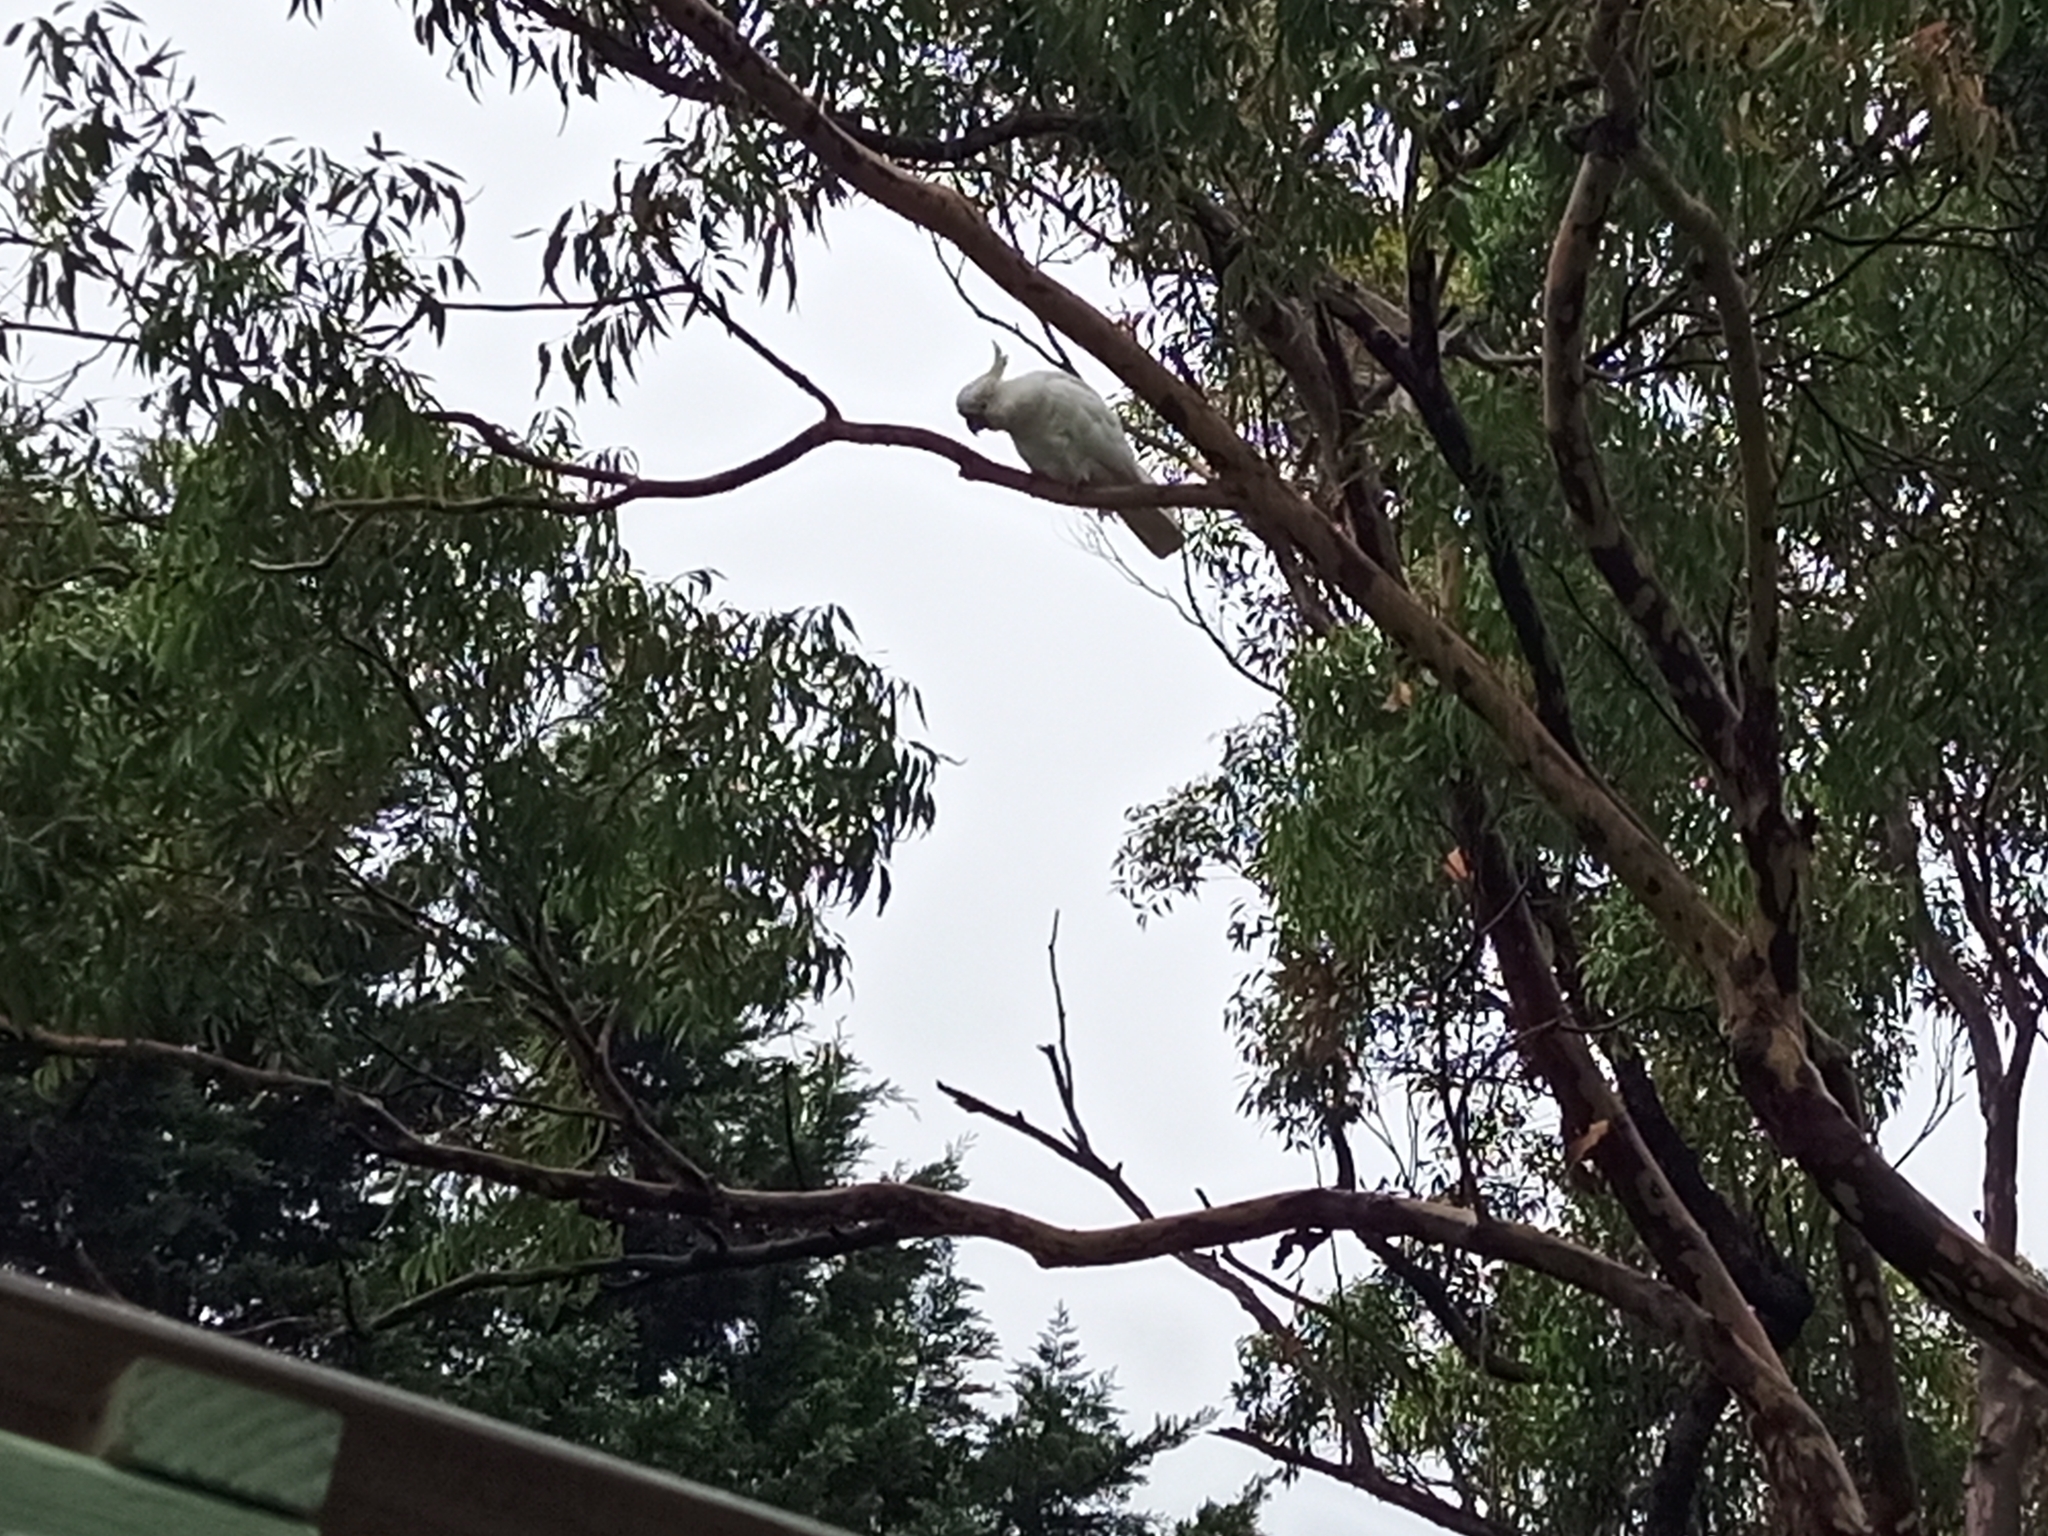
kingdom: Animalia
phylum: Chordata
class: Aves
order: Psittaciformes
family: Psittacidae
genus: Cacatua
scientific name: Cacatua galerita
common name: Sulphur-crested cockatoo
